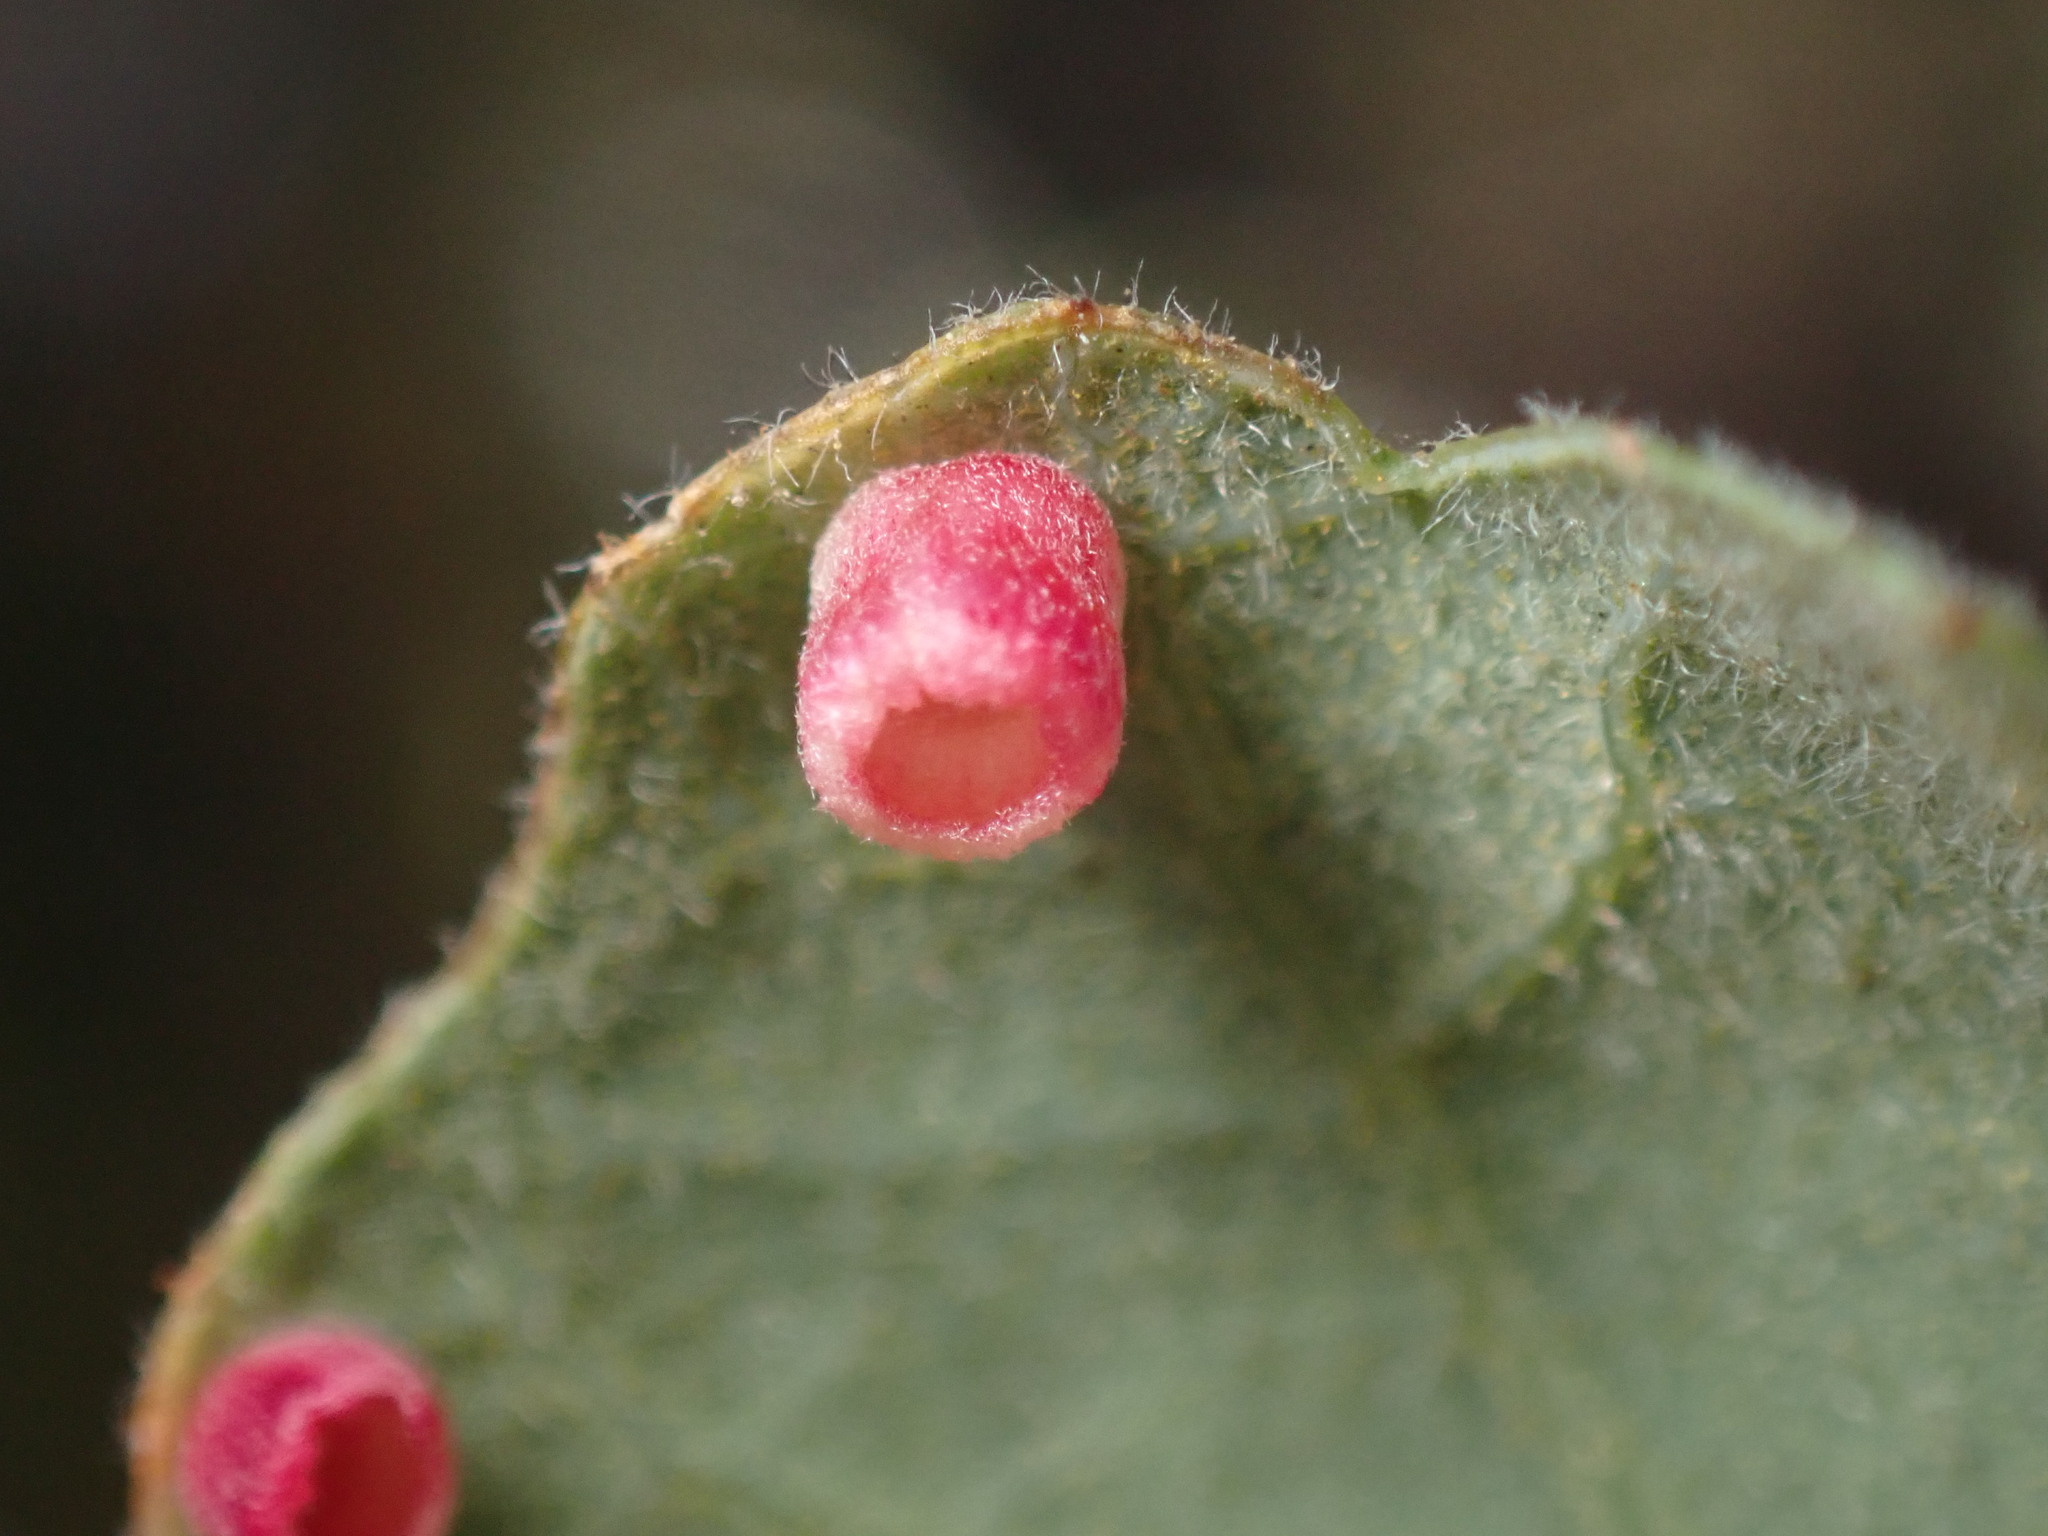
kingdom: Animalia
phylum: Arthropoda
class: Insecta
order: Hymenoptera
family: Cynipidae
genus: Phylloteras
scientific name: Phylloteras
